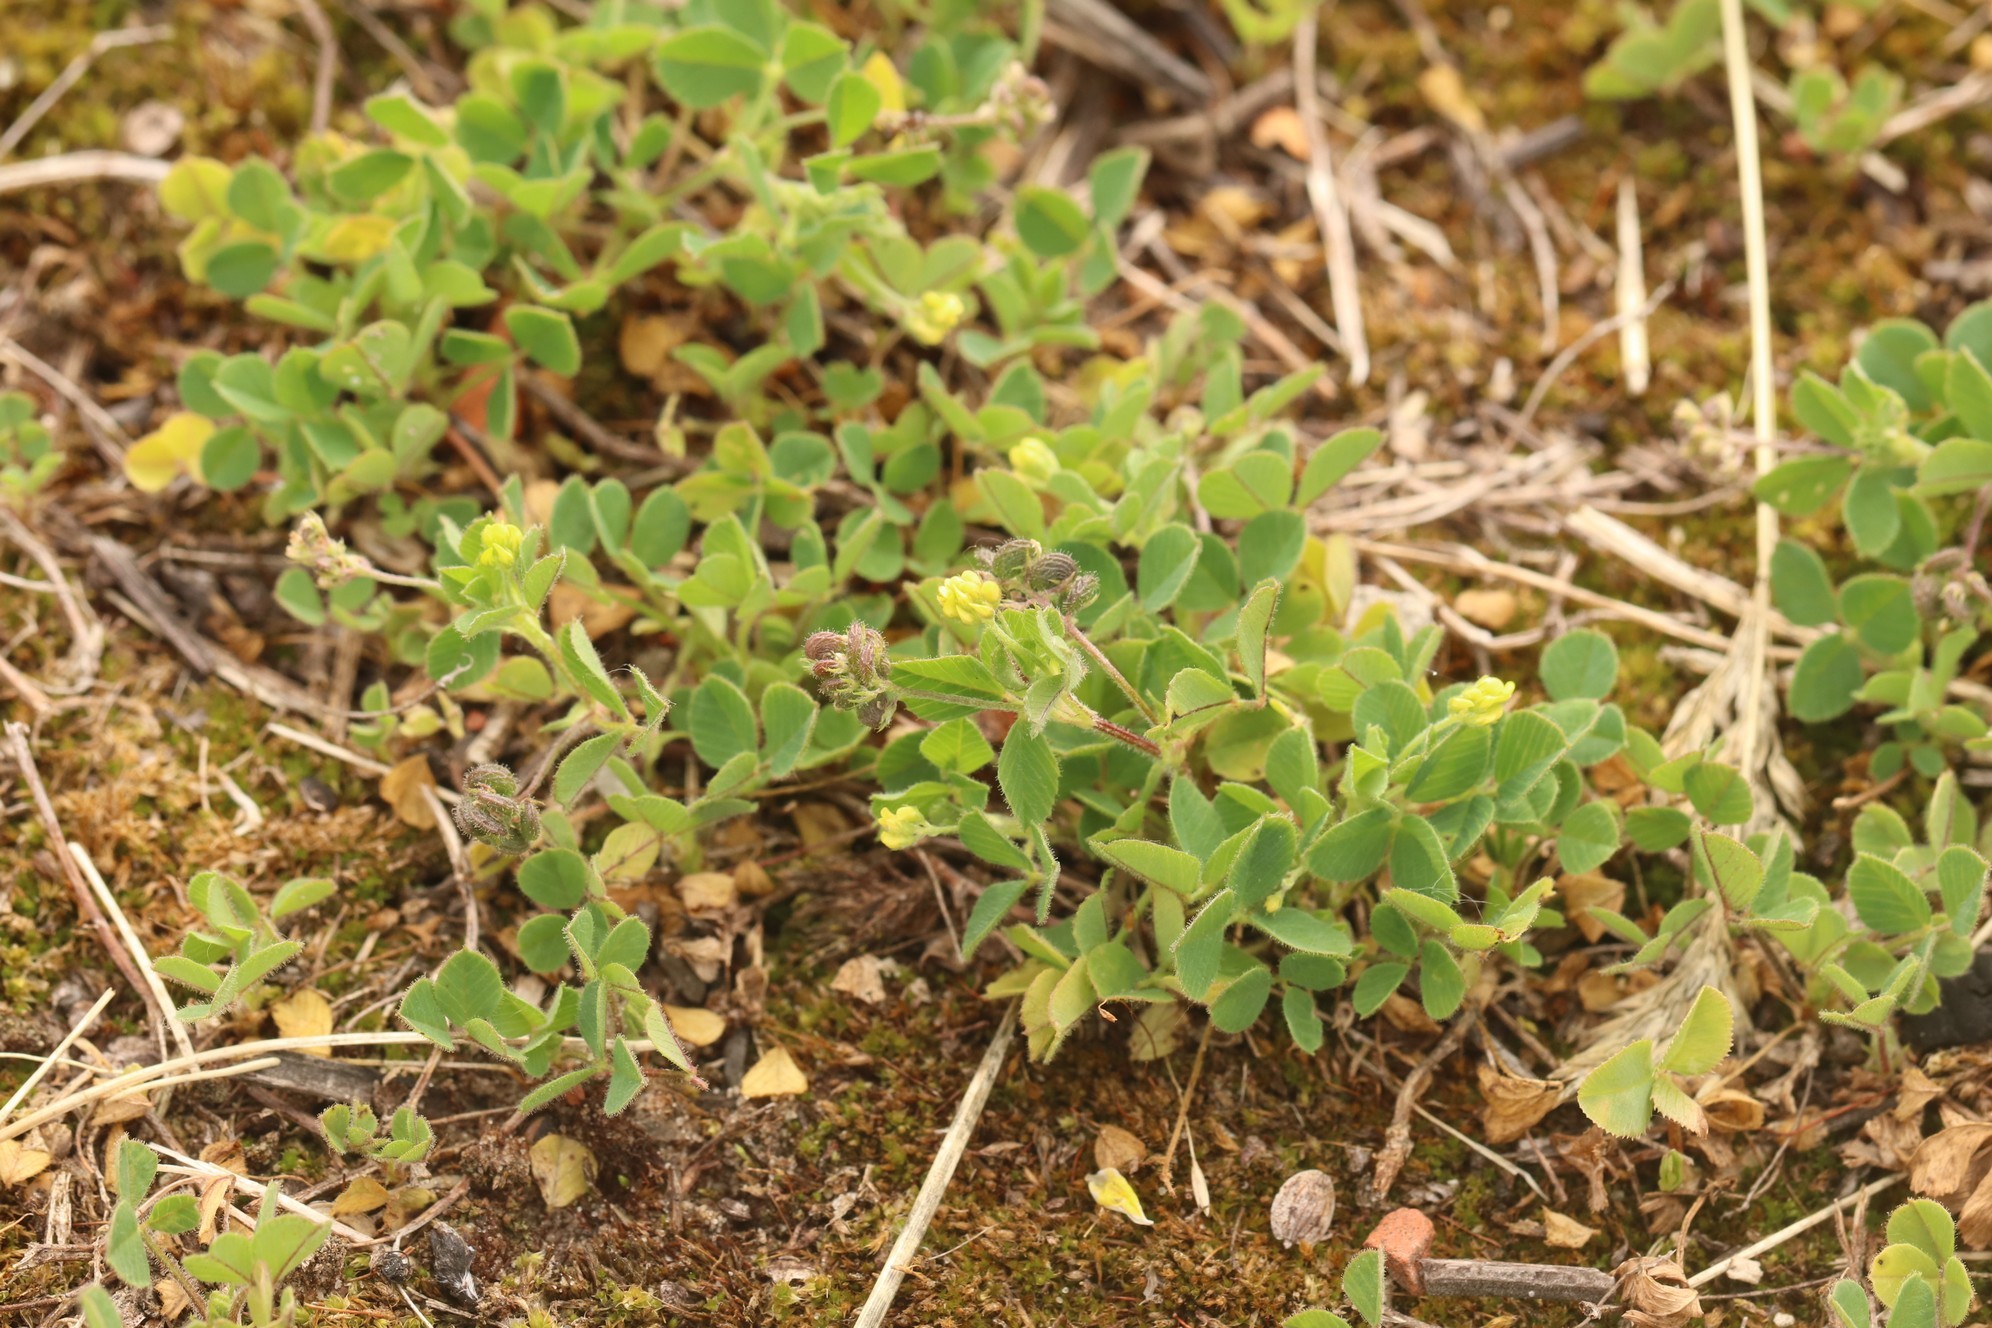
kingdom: Plantae
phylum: Tracheophyta
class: Magnoliopsida
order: Fabales
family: Fabaceae
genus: Medicago
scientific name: Medicago lupulina
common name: Black medick
